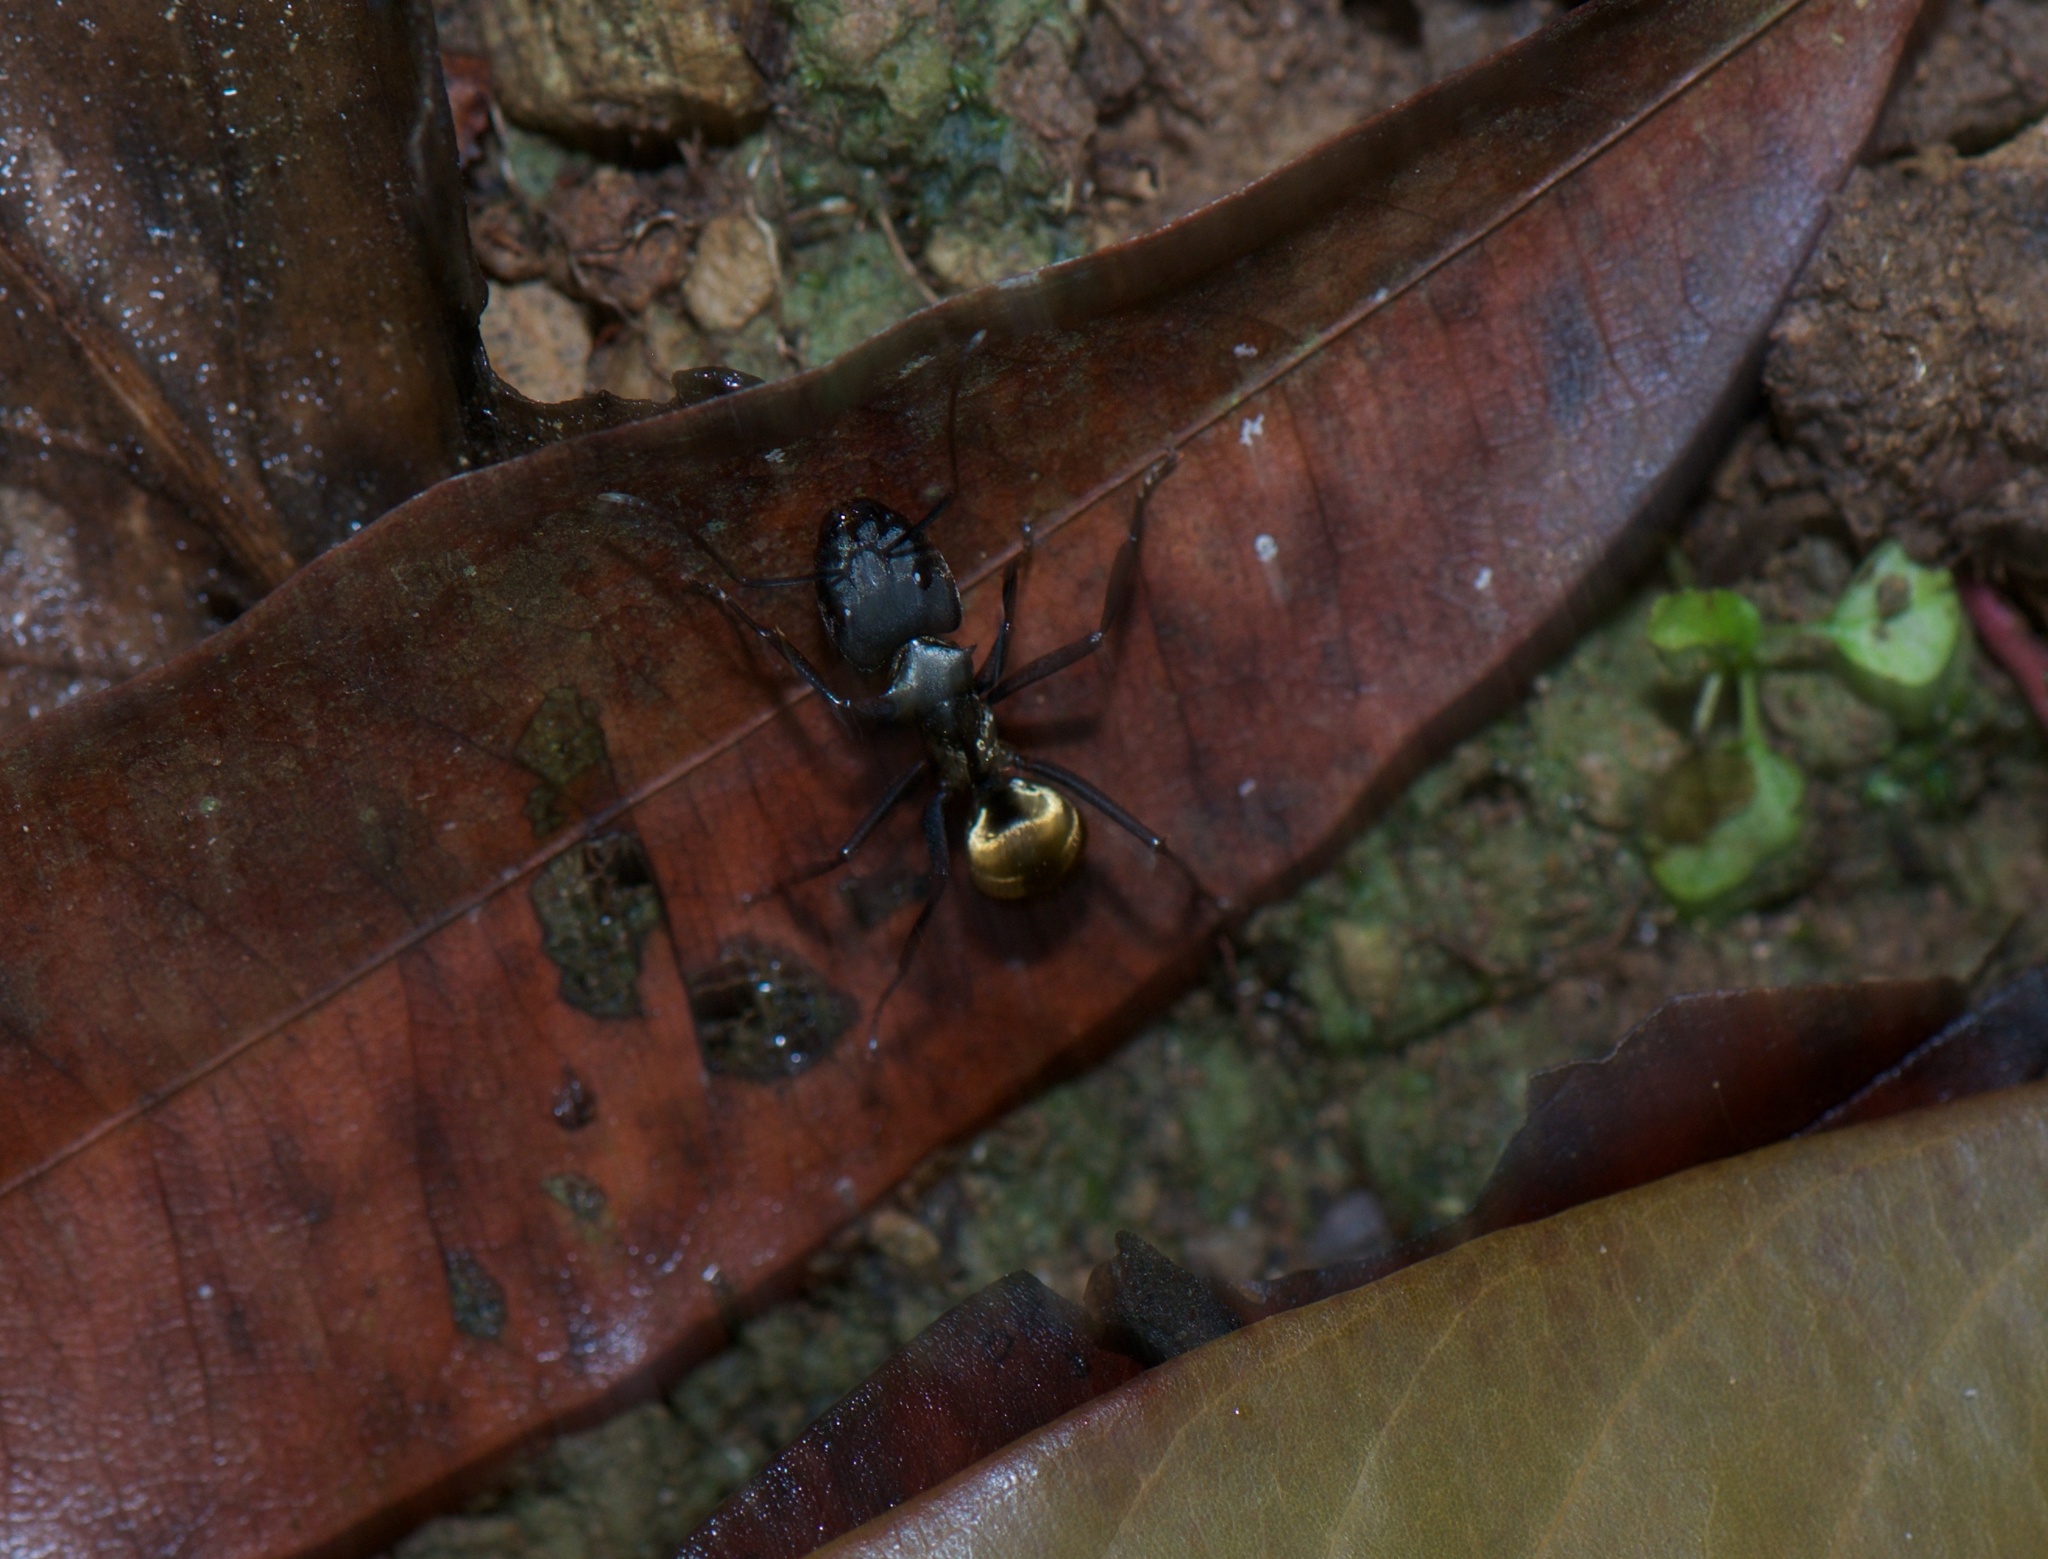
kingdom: Animalia
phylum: Arthropoda
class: Insecta
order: Hymenoptera
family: Formicidae
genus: Camponotus
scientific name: Camponotus sericeiventris
